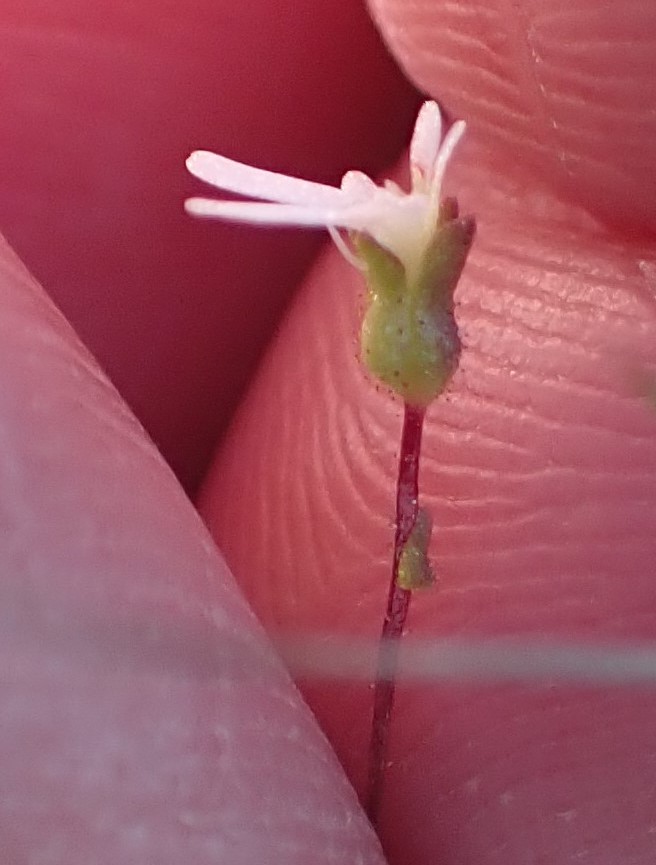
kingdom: Plantae
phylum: Tracheophyta
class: Magnoliopsida
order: Asterales
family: Stylidiaceae
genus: Stylidium
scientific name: Stylidium perpusillum
